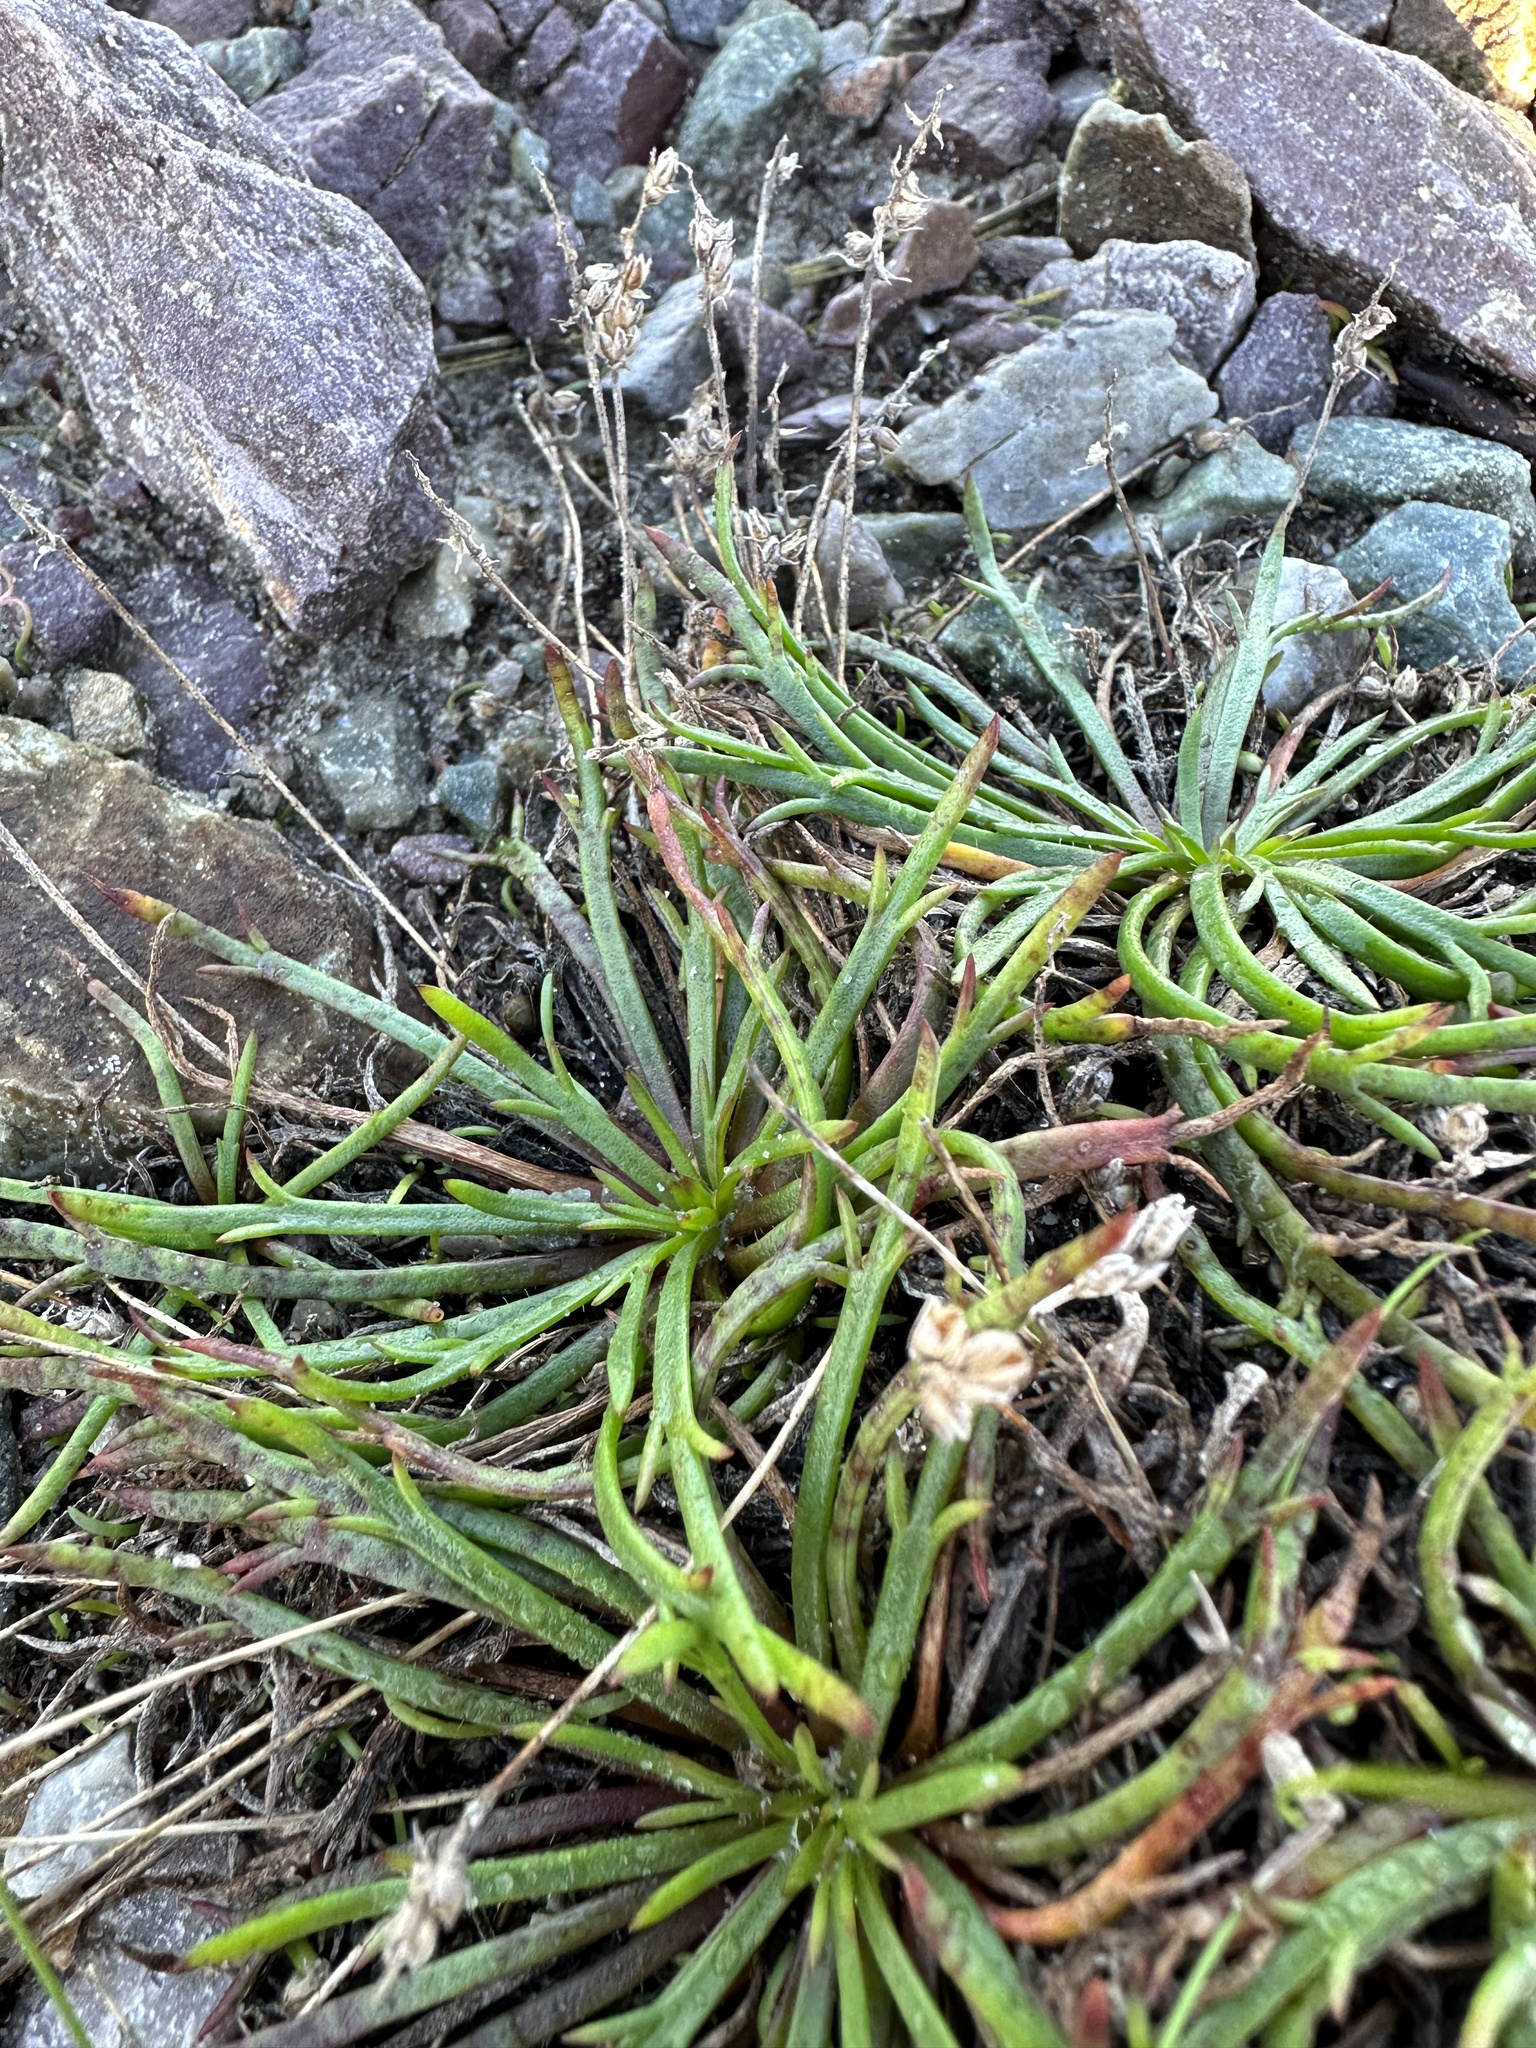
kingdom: Plantae
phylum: Tracheophyta
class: Magnoliopsida
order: Lamiales
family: Plantaginaceae
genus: Plantago
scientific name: Plantago coronopus
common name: Buck's-horn plantain
